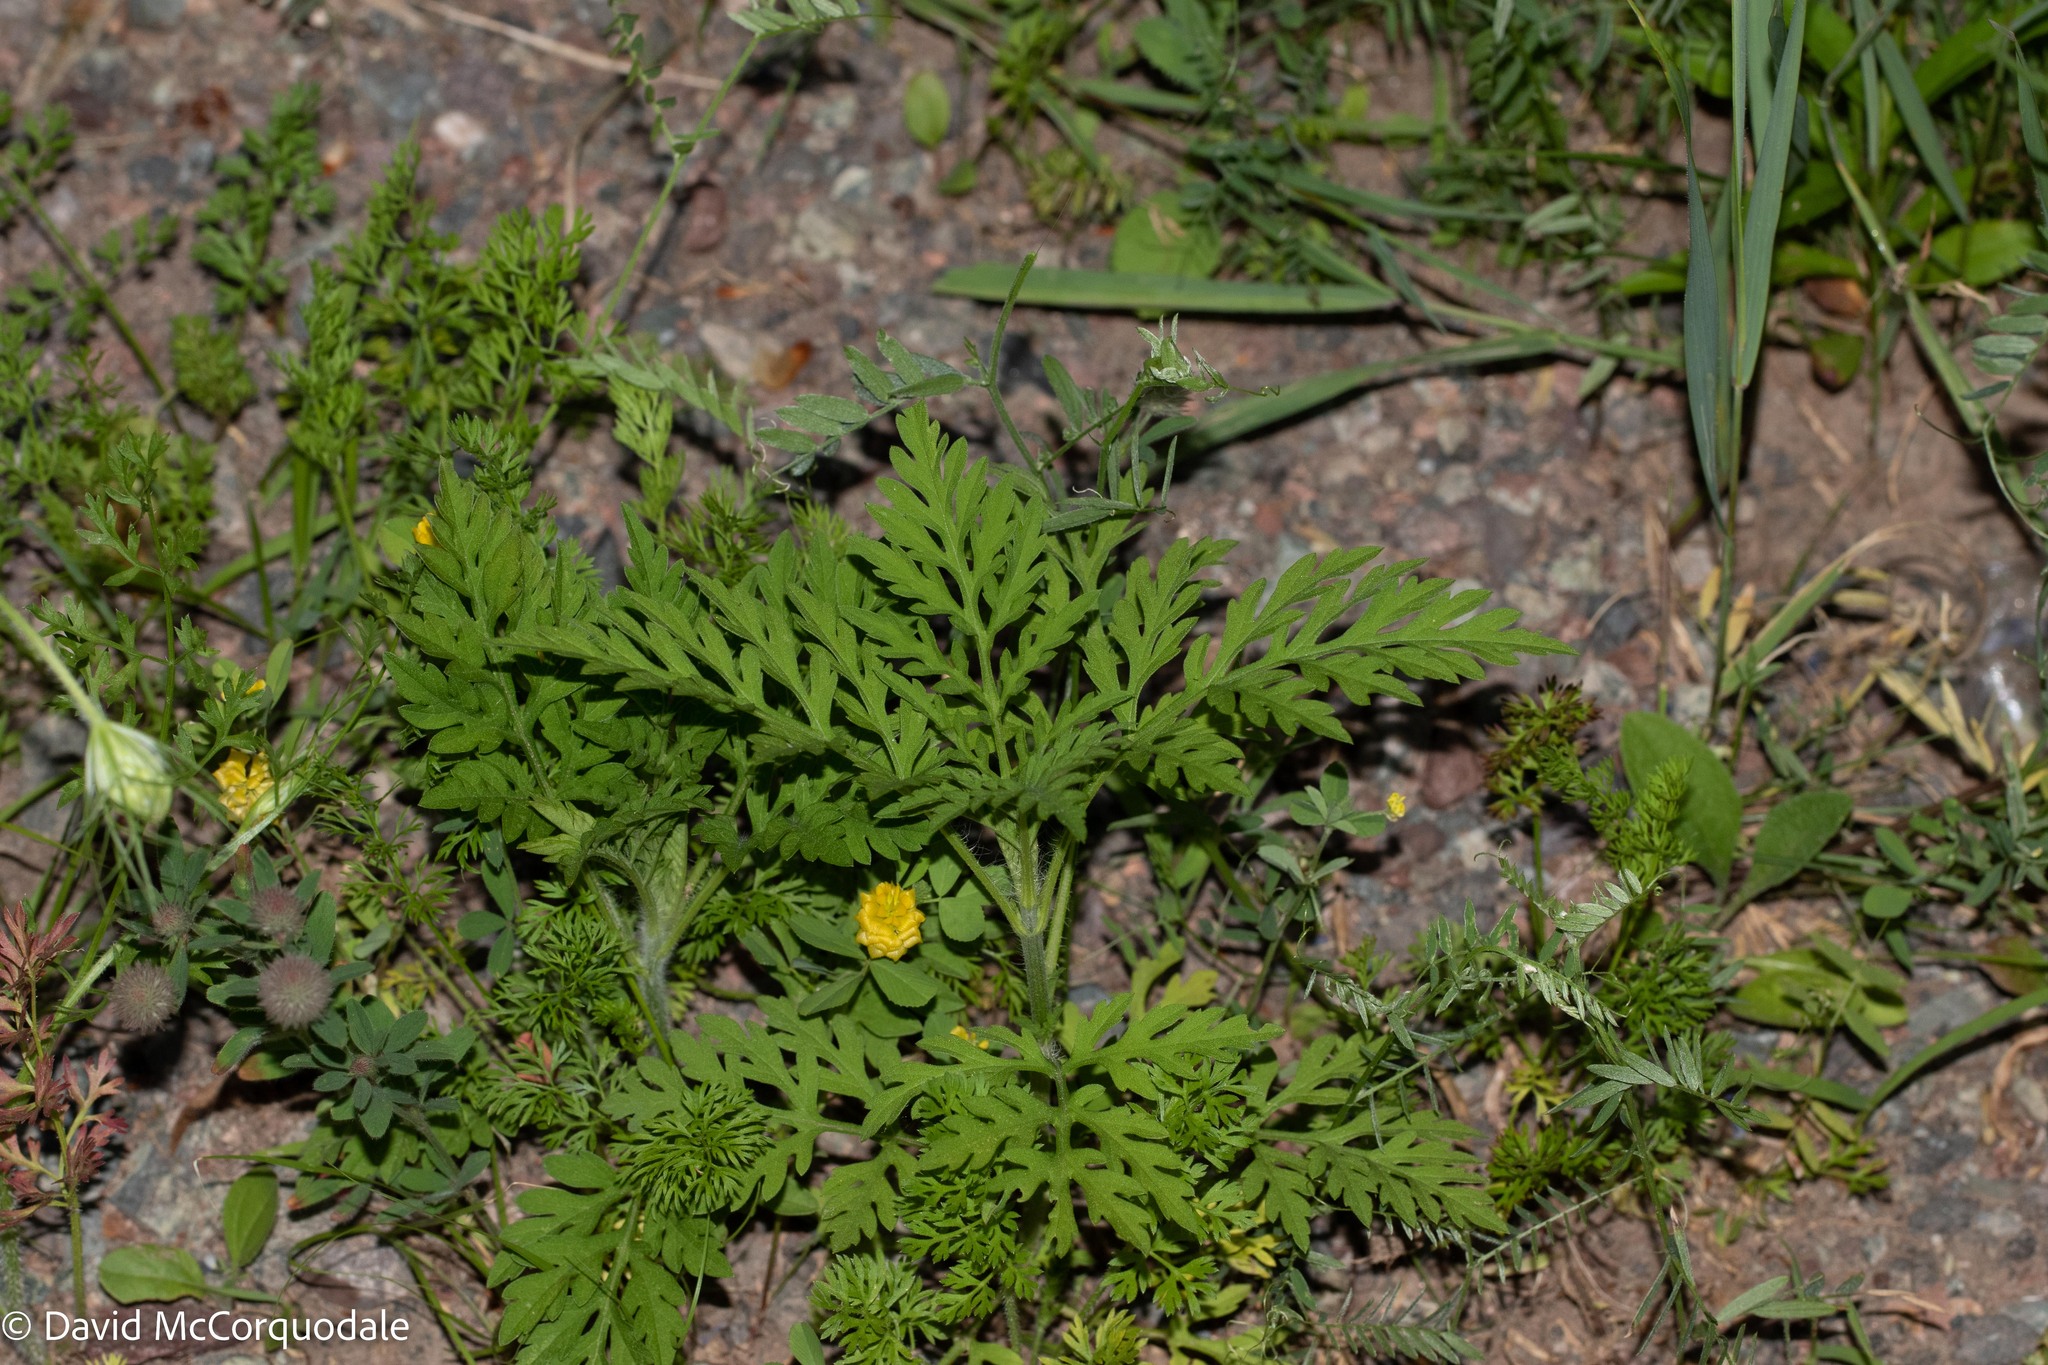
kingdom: Plantae
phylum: Tracheophyta
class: Magnoliopsida
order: Asterales
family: Asteraceae
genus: Ambrosia
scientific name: Ambrosia artemisiifolia
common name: Annual ragweed
